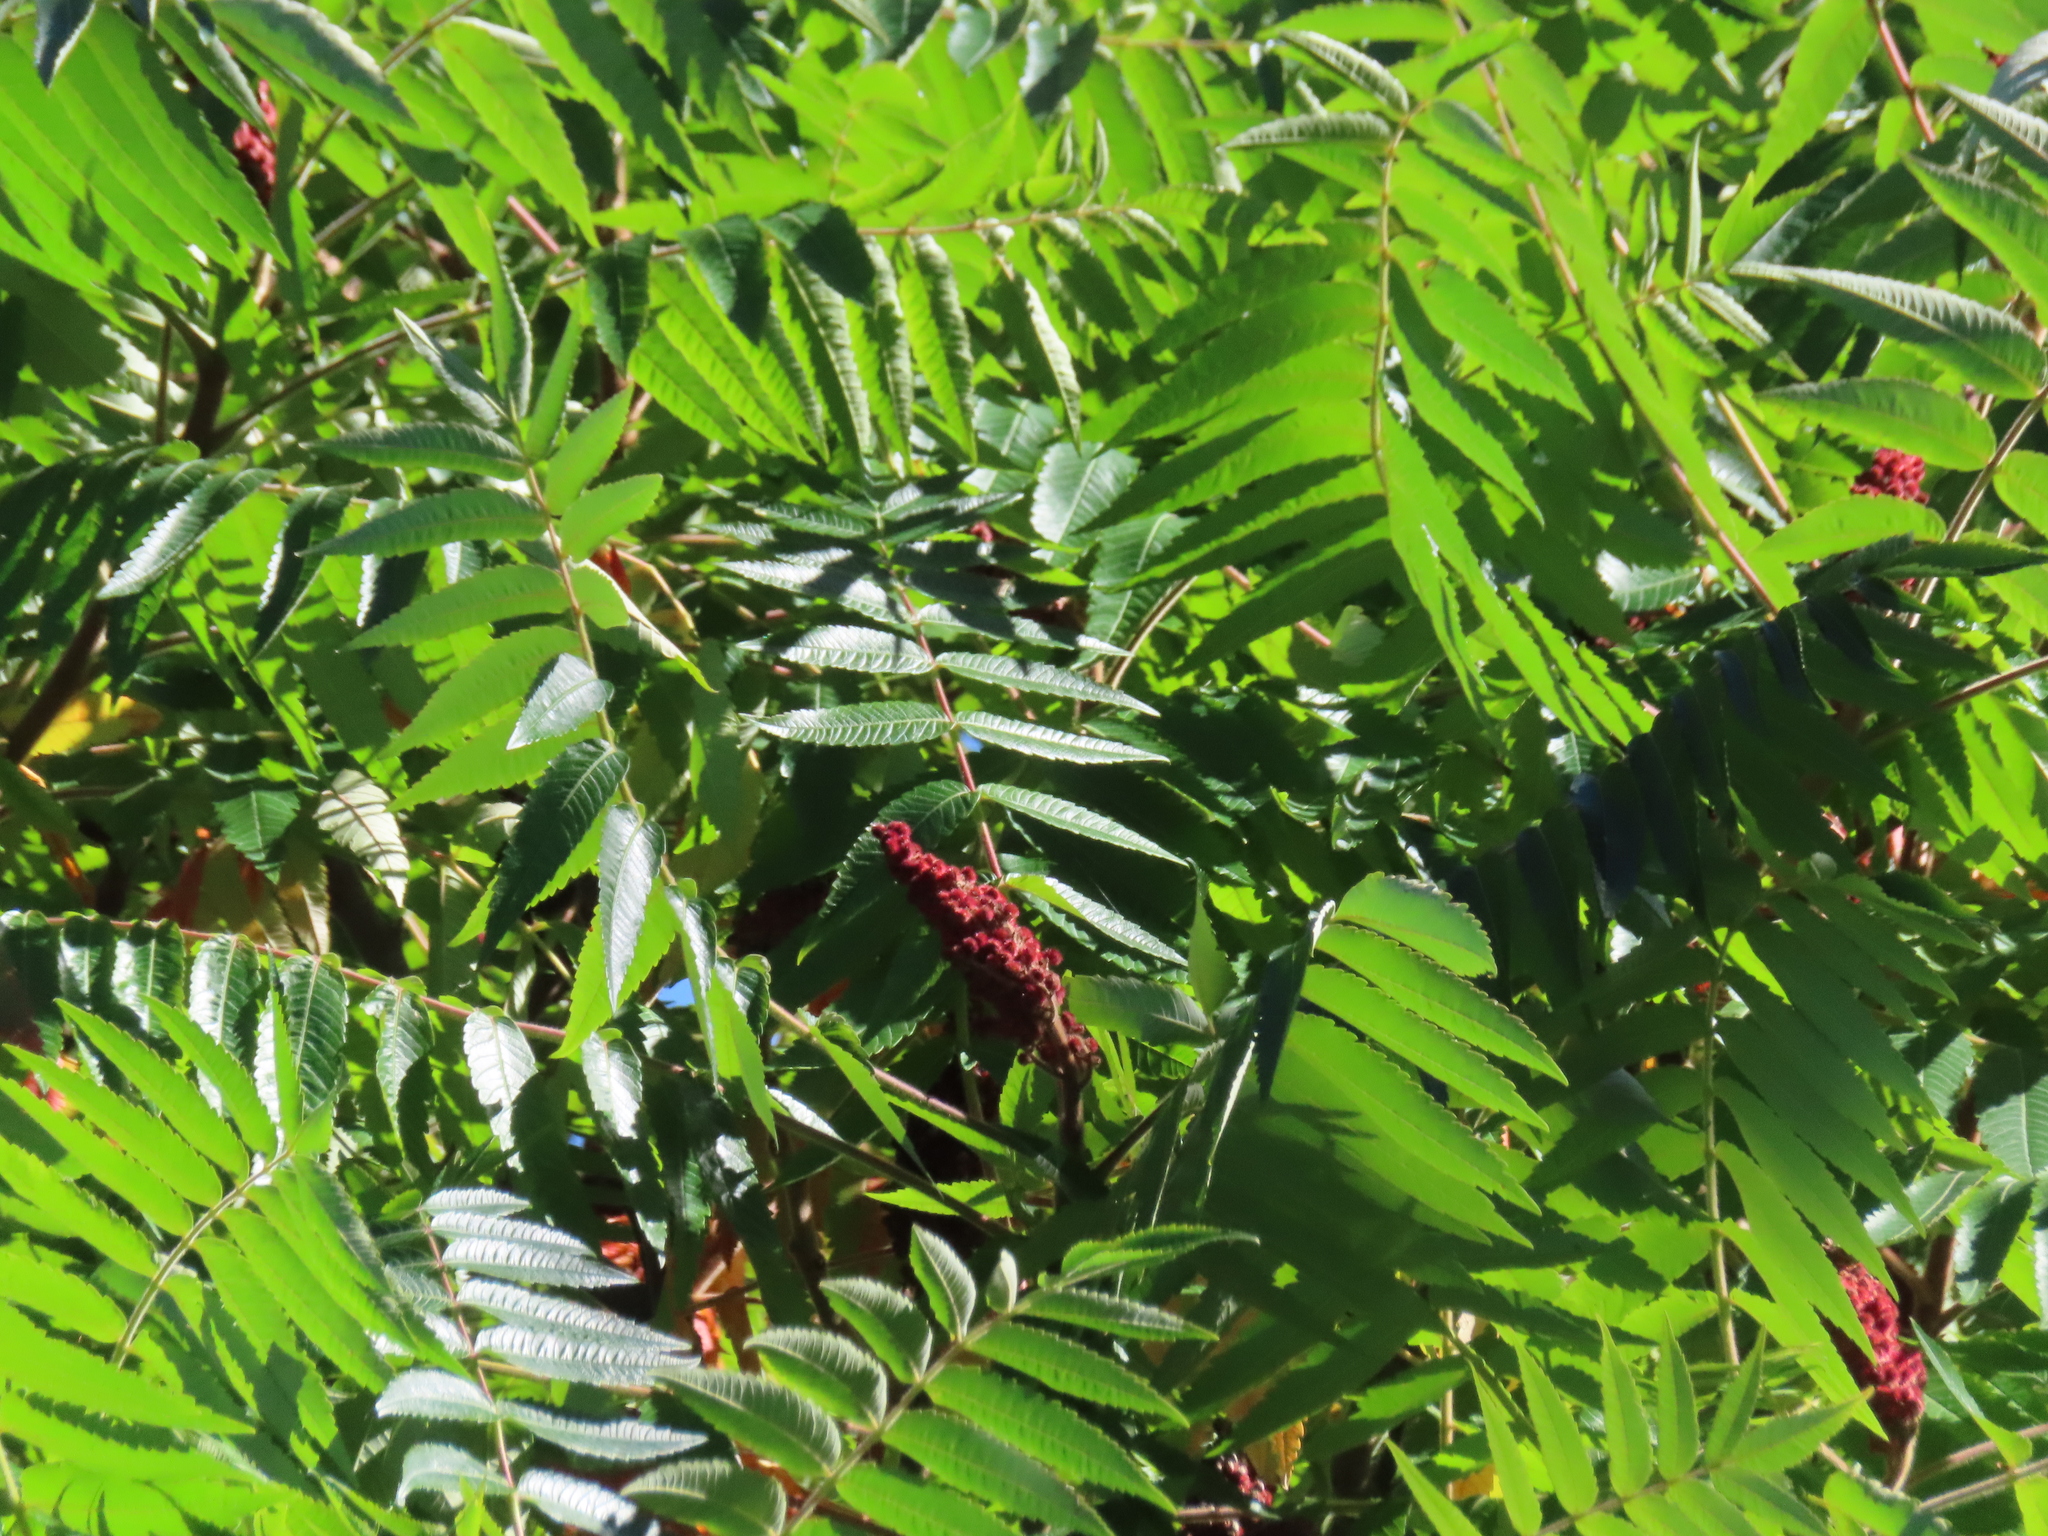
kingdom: Plantae
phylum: Tracheophyta
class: Magnoliopsida
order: Sapindales
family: Anacardiaceae
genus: Rhus
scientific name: Rhus typhina
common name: Staghorn sumac
